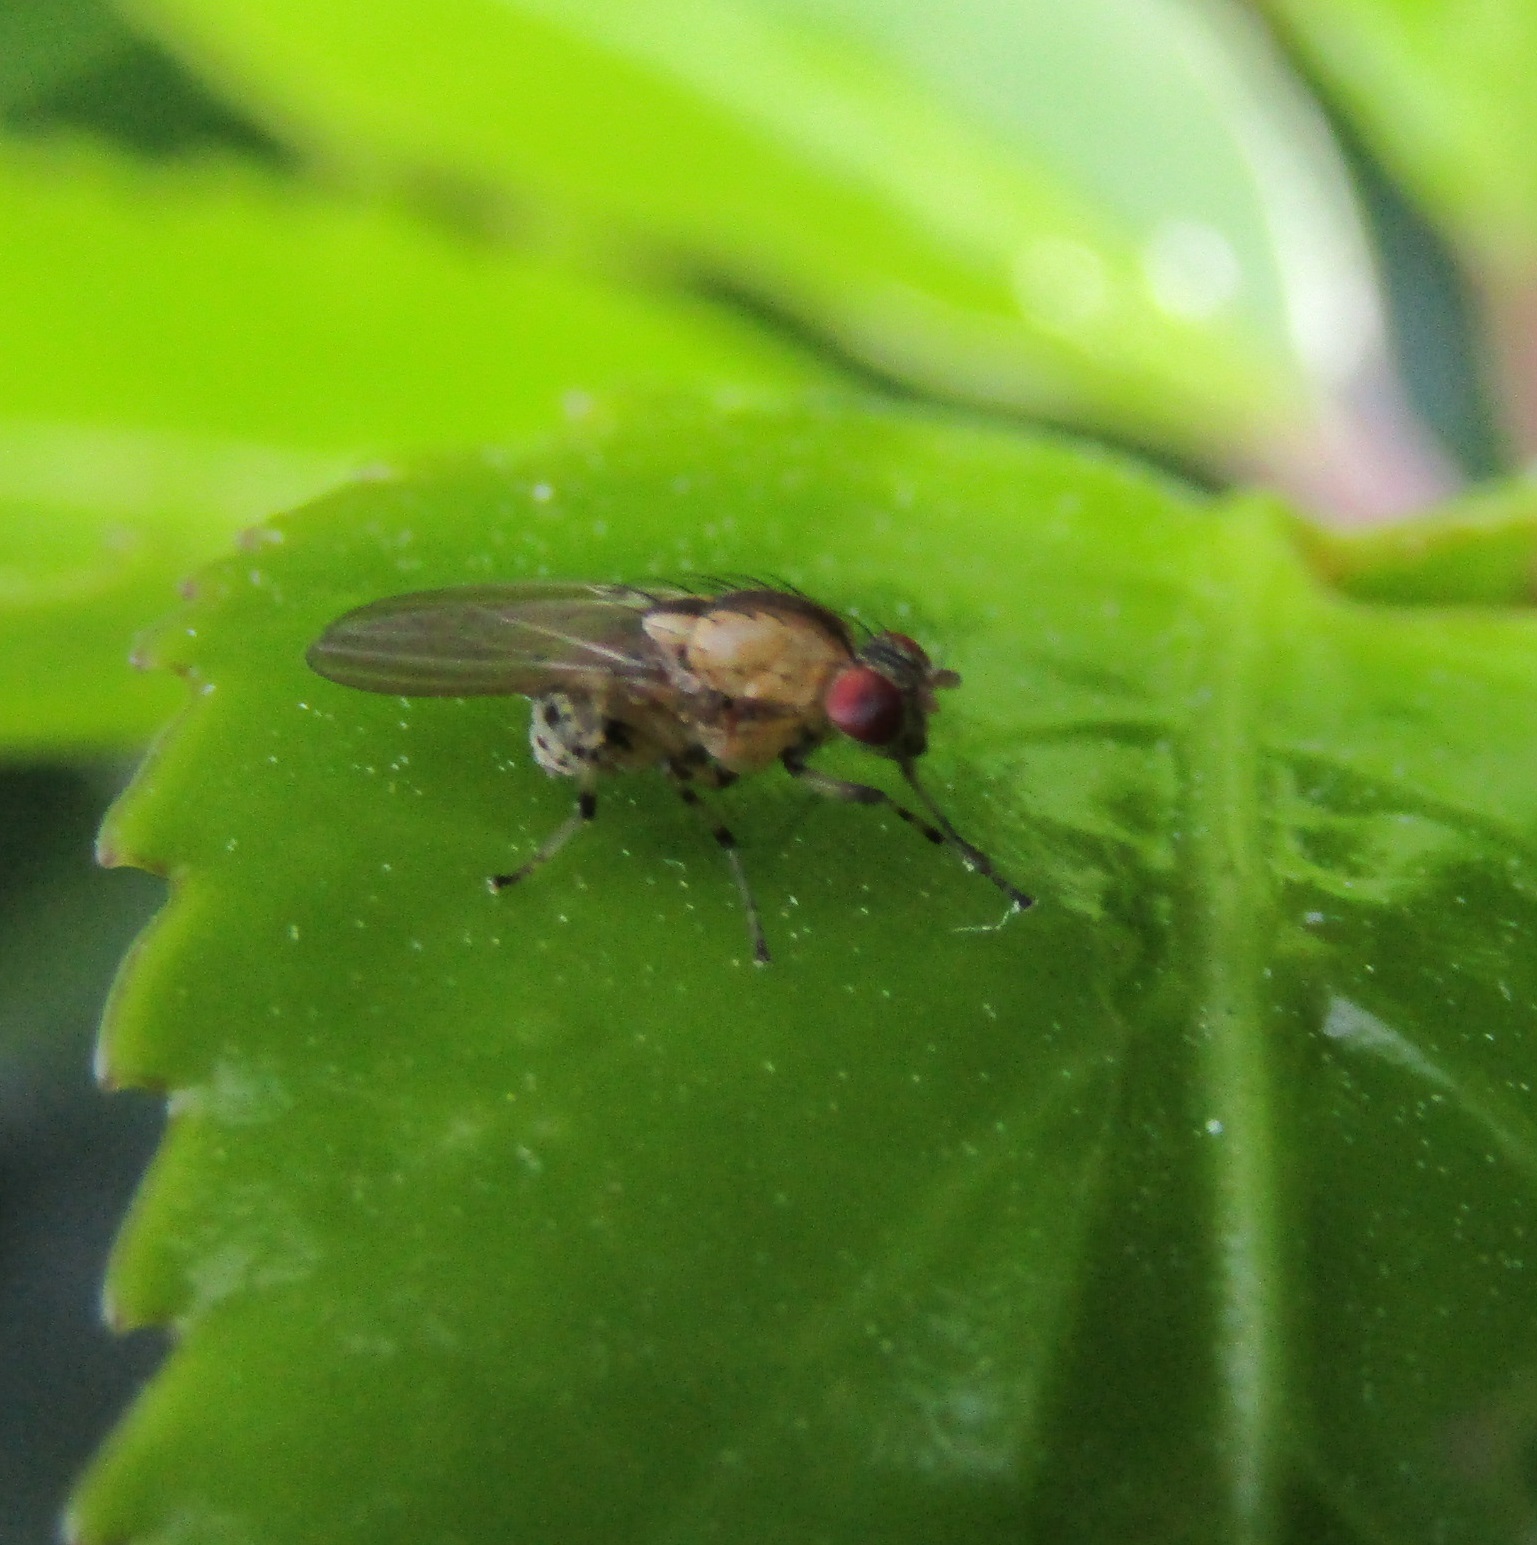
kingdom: Animalia
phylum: Arthropoda
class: Insecta
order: Diptera
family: Lauxaniidae
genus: Sapromyza
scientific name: Sapromyza neozelandica
